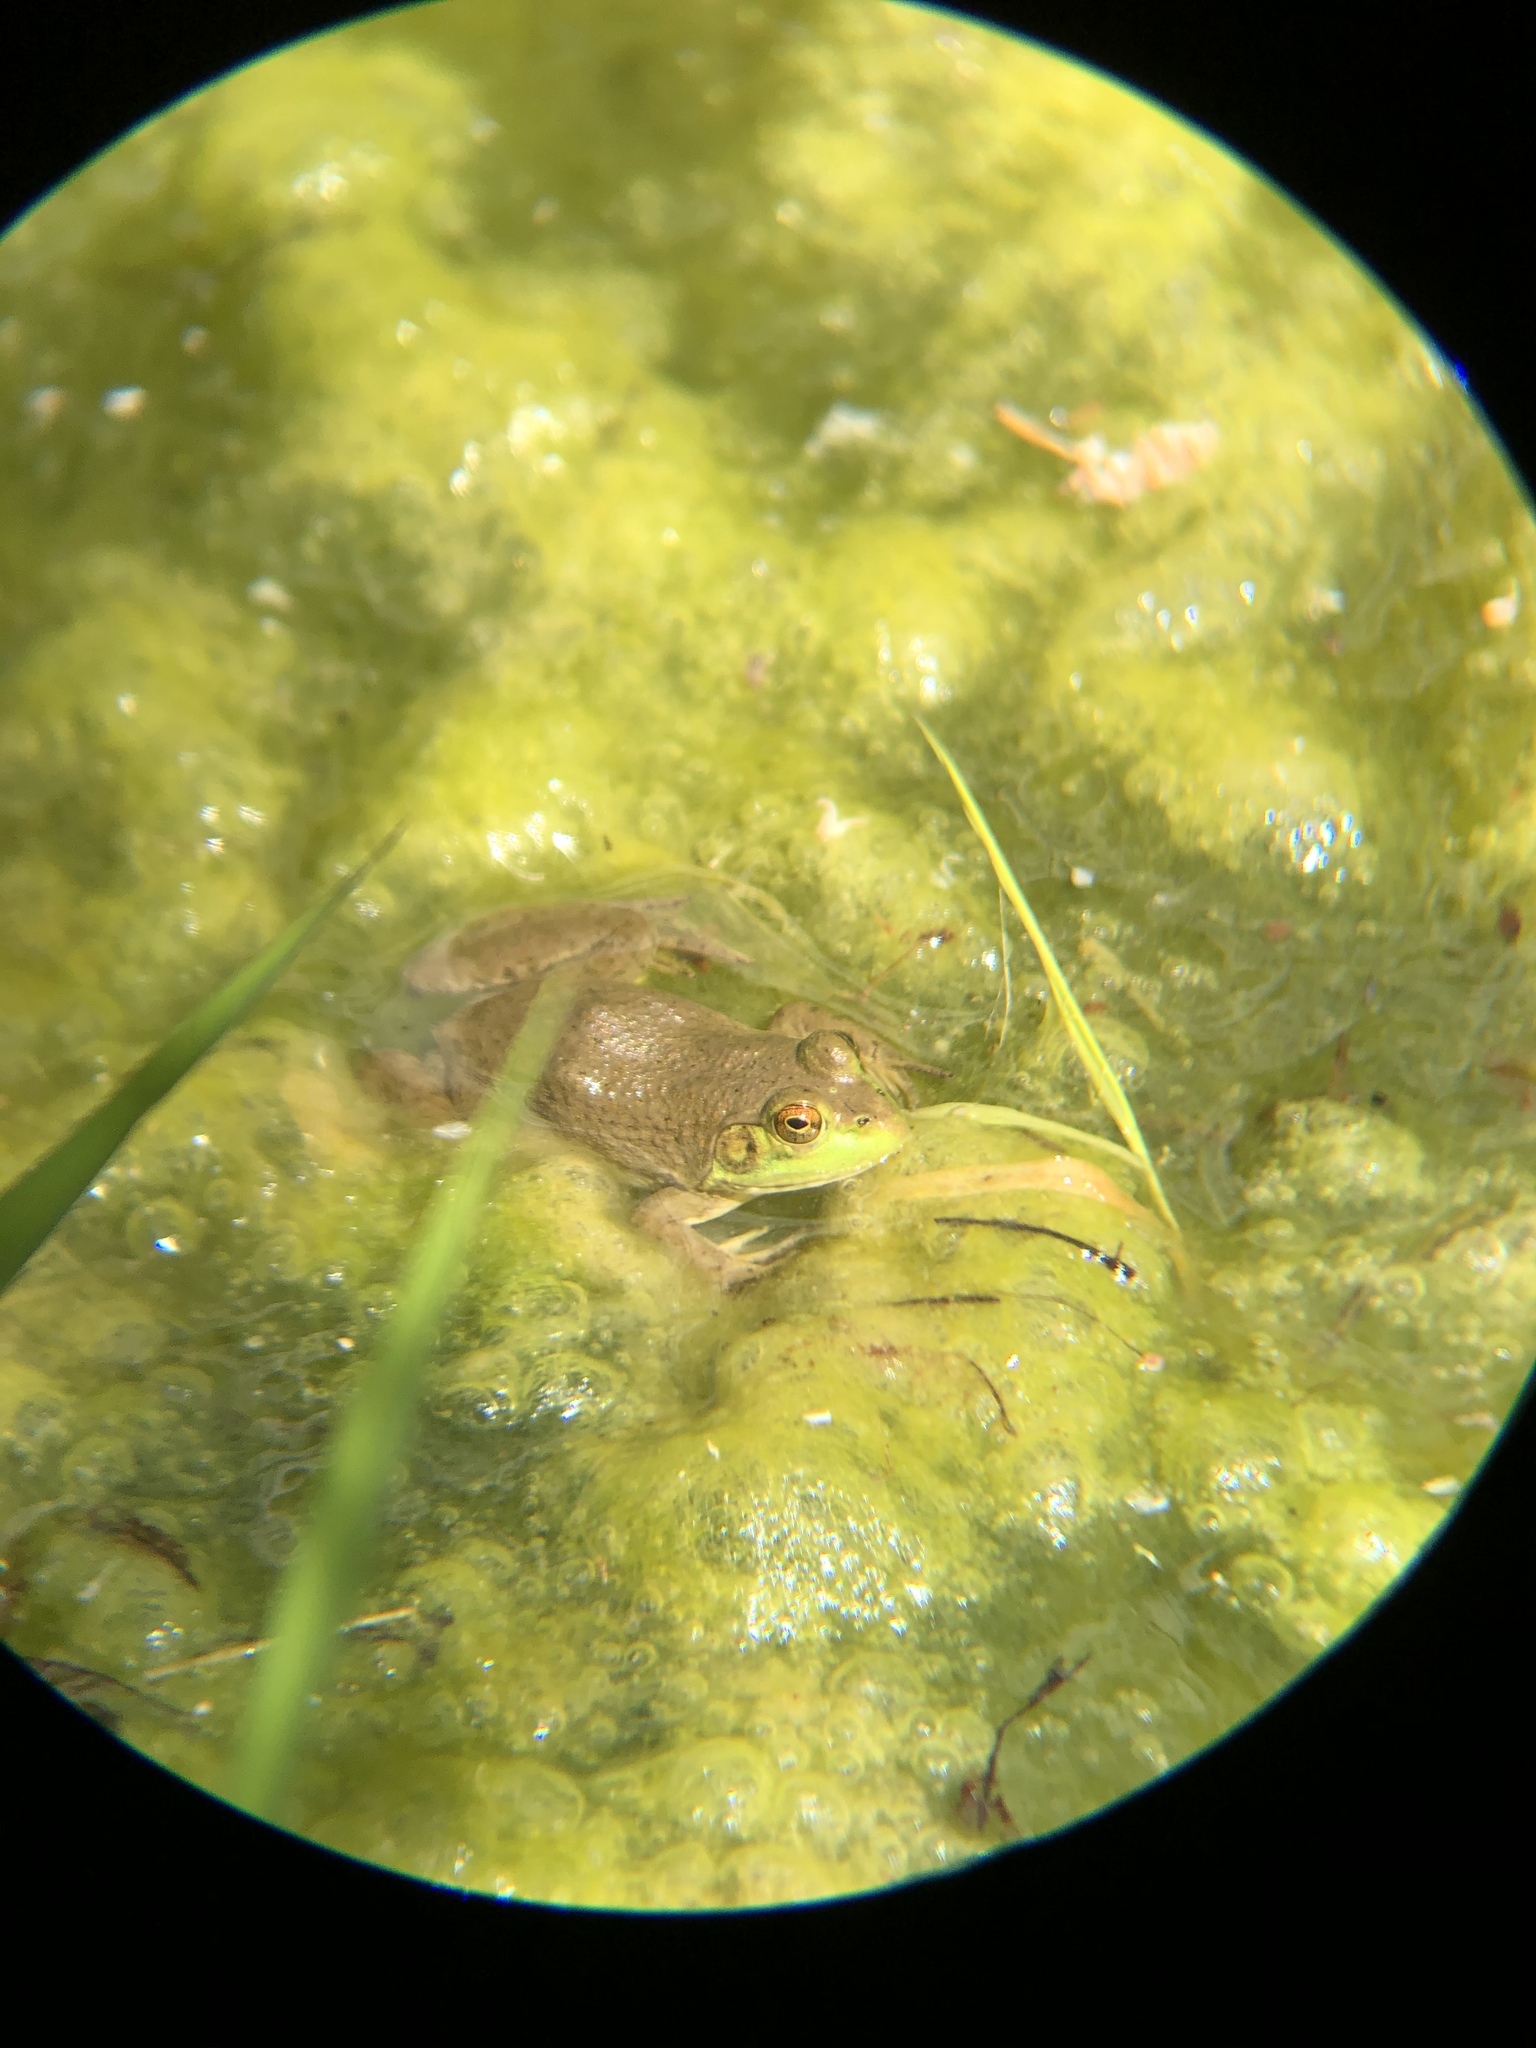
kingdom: Animalia
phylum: Chordata
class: Amphibia
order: Anura
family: Ranidae
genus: Lithobates
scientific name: Lithobates catesbeianus
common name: American bullfrog
